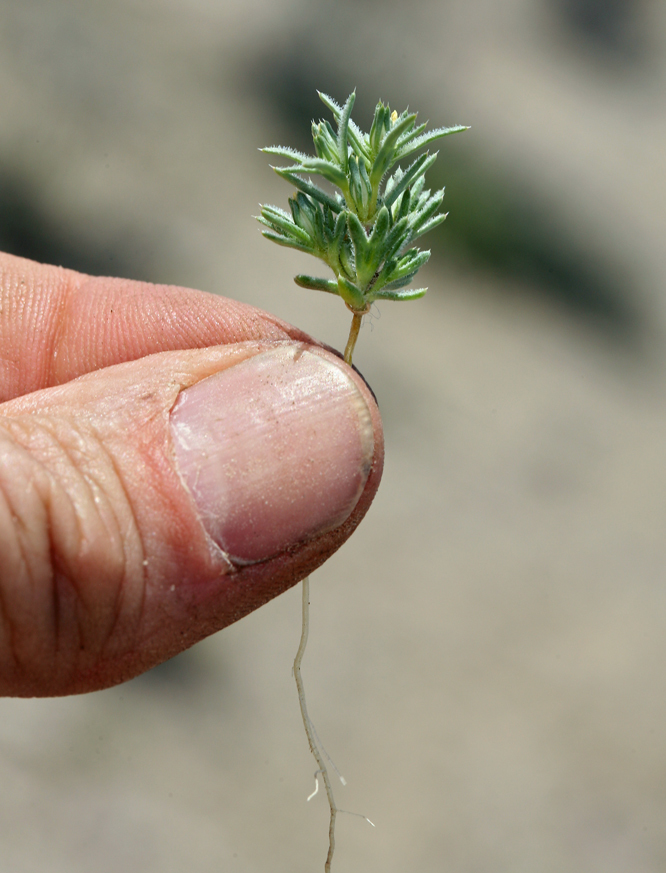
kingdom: Plantae
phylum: Tracheophyta
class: Magnoliopsida
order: Ericales
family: Polemoniaceae
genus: Linanthus
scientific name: Linanthus arenicola
